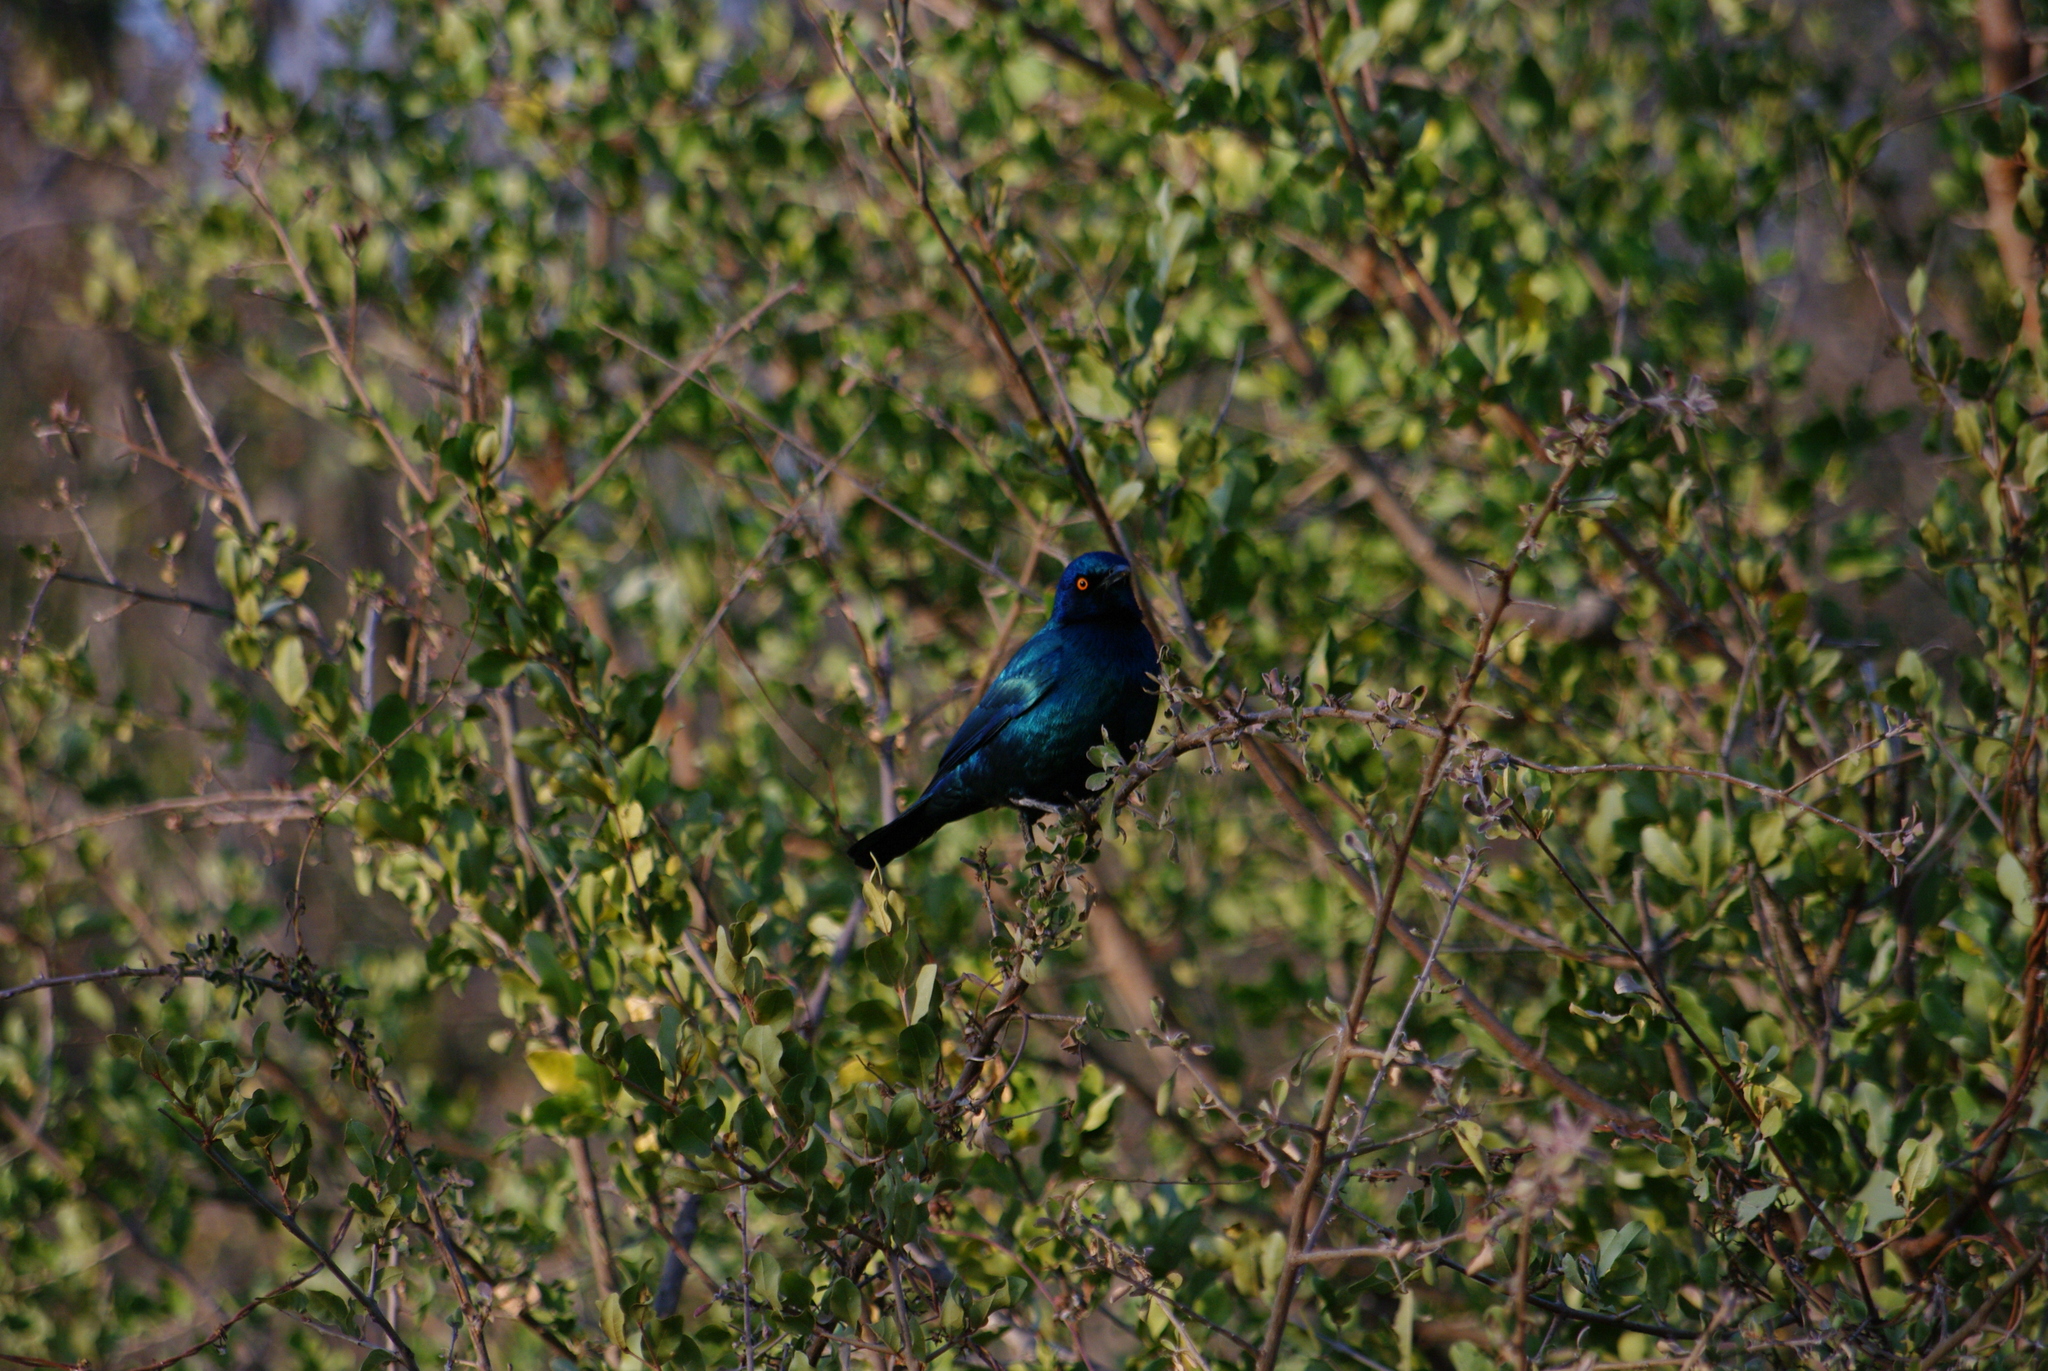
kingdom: Animalia
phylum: Chordata
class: Aves
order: Passeriformes
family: Sturnidae
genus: Lamprotornis
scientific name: Lamprotornis chalybaeus
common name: Greater blue-eared starling
